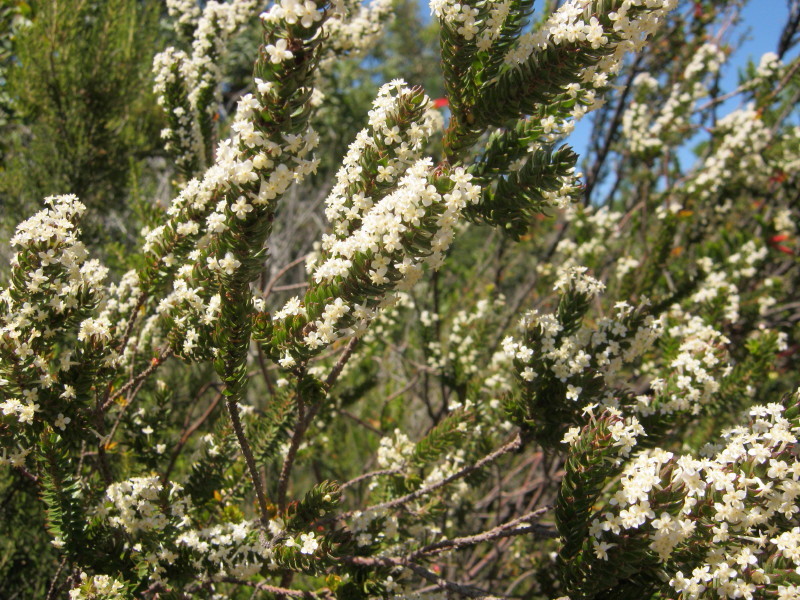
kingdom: Plantae
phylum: Tracheophyta
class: Magnoliopsida
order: Malvales
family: Thymelaeaceae
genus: Struthiola
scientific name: Struthiola hirsuta
